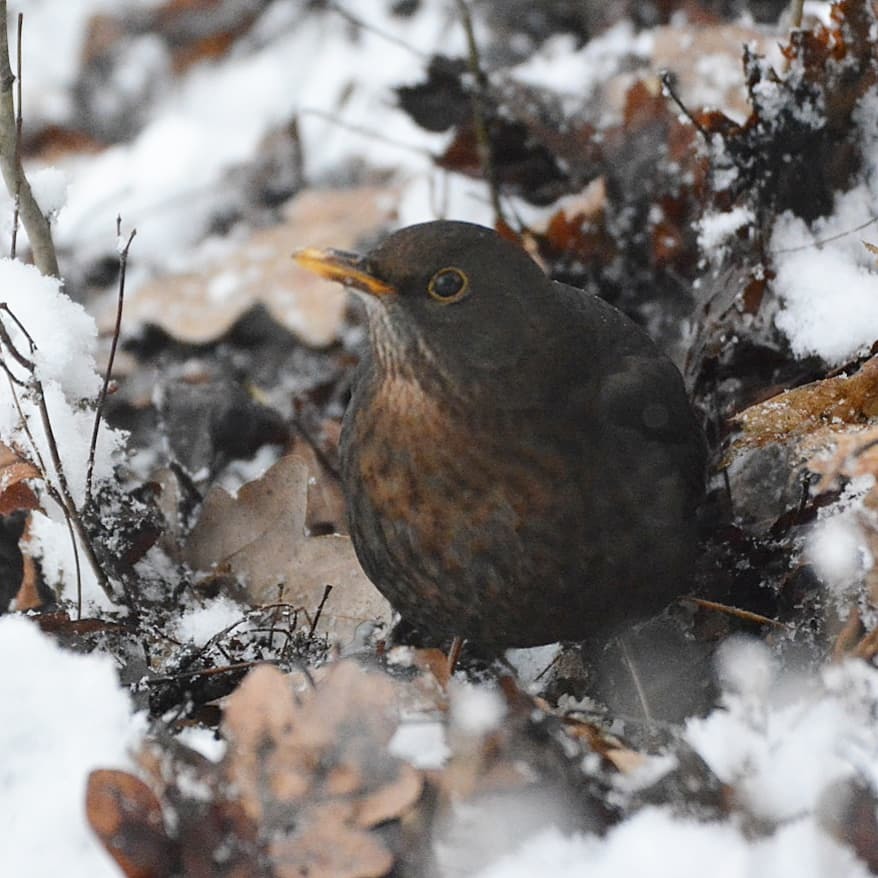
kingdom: Animalia
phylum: Chordata
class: Aves
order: Passeriformes
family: Turdidae
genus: Turdus
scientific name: Turdus merula
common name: Common blackbird
